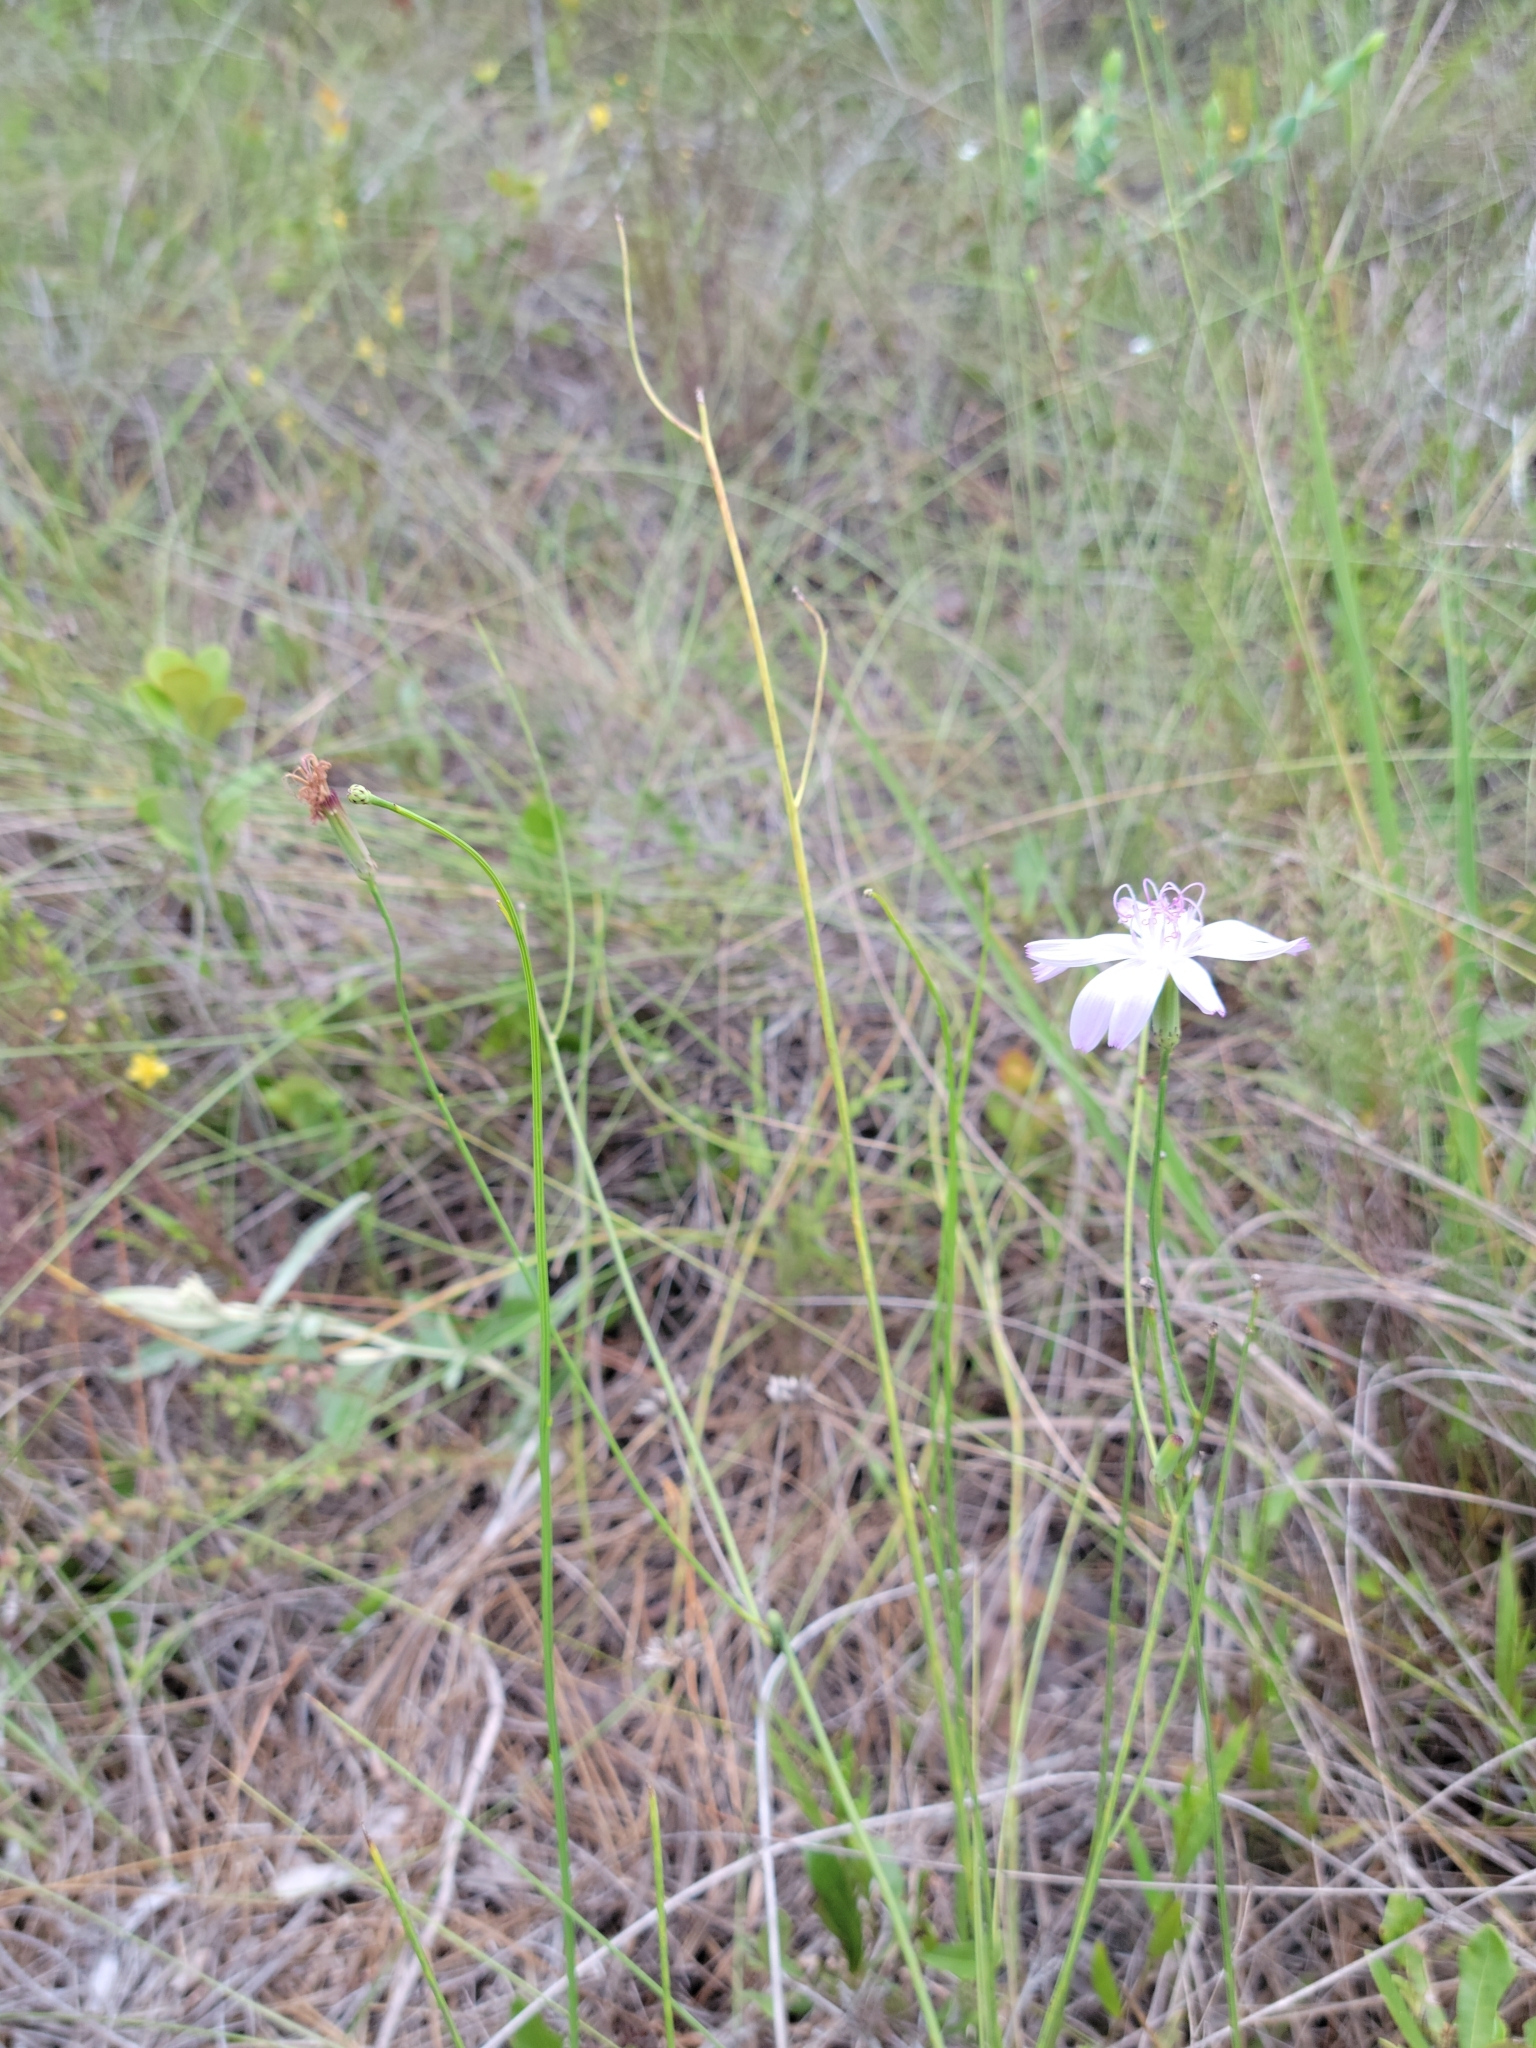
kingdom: Plantae
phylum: Tracheophyta
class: Magnoliopsida
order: Asterales
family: Asteraceae
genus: Lygodesmia
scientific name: Lygodesmia aphylla
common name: Rose-rush
